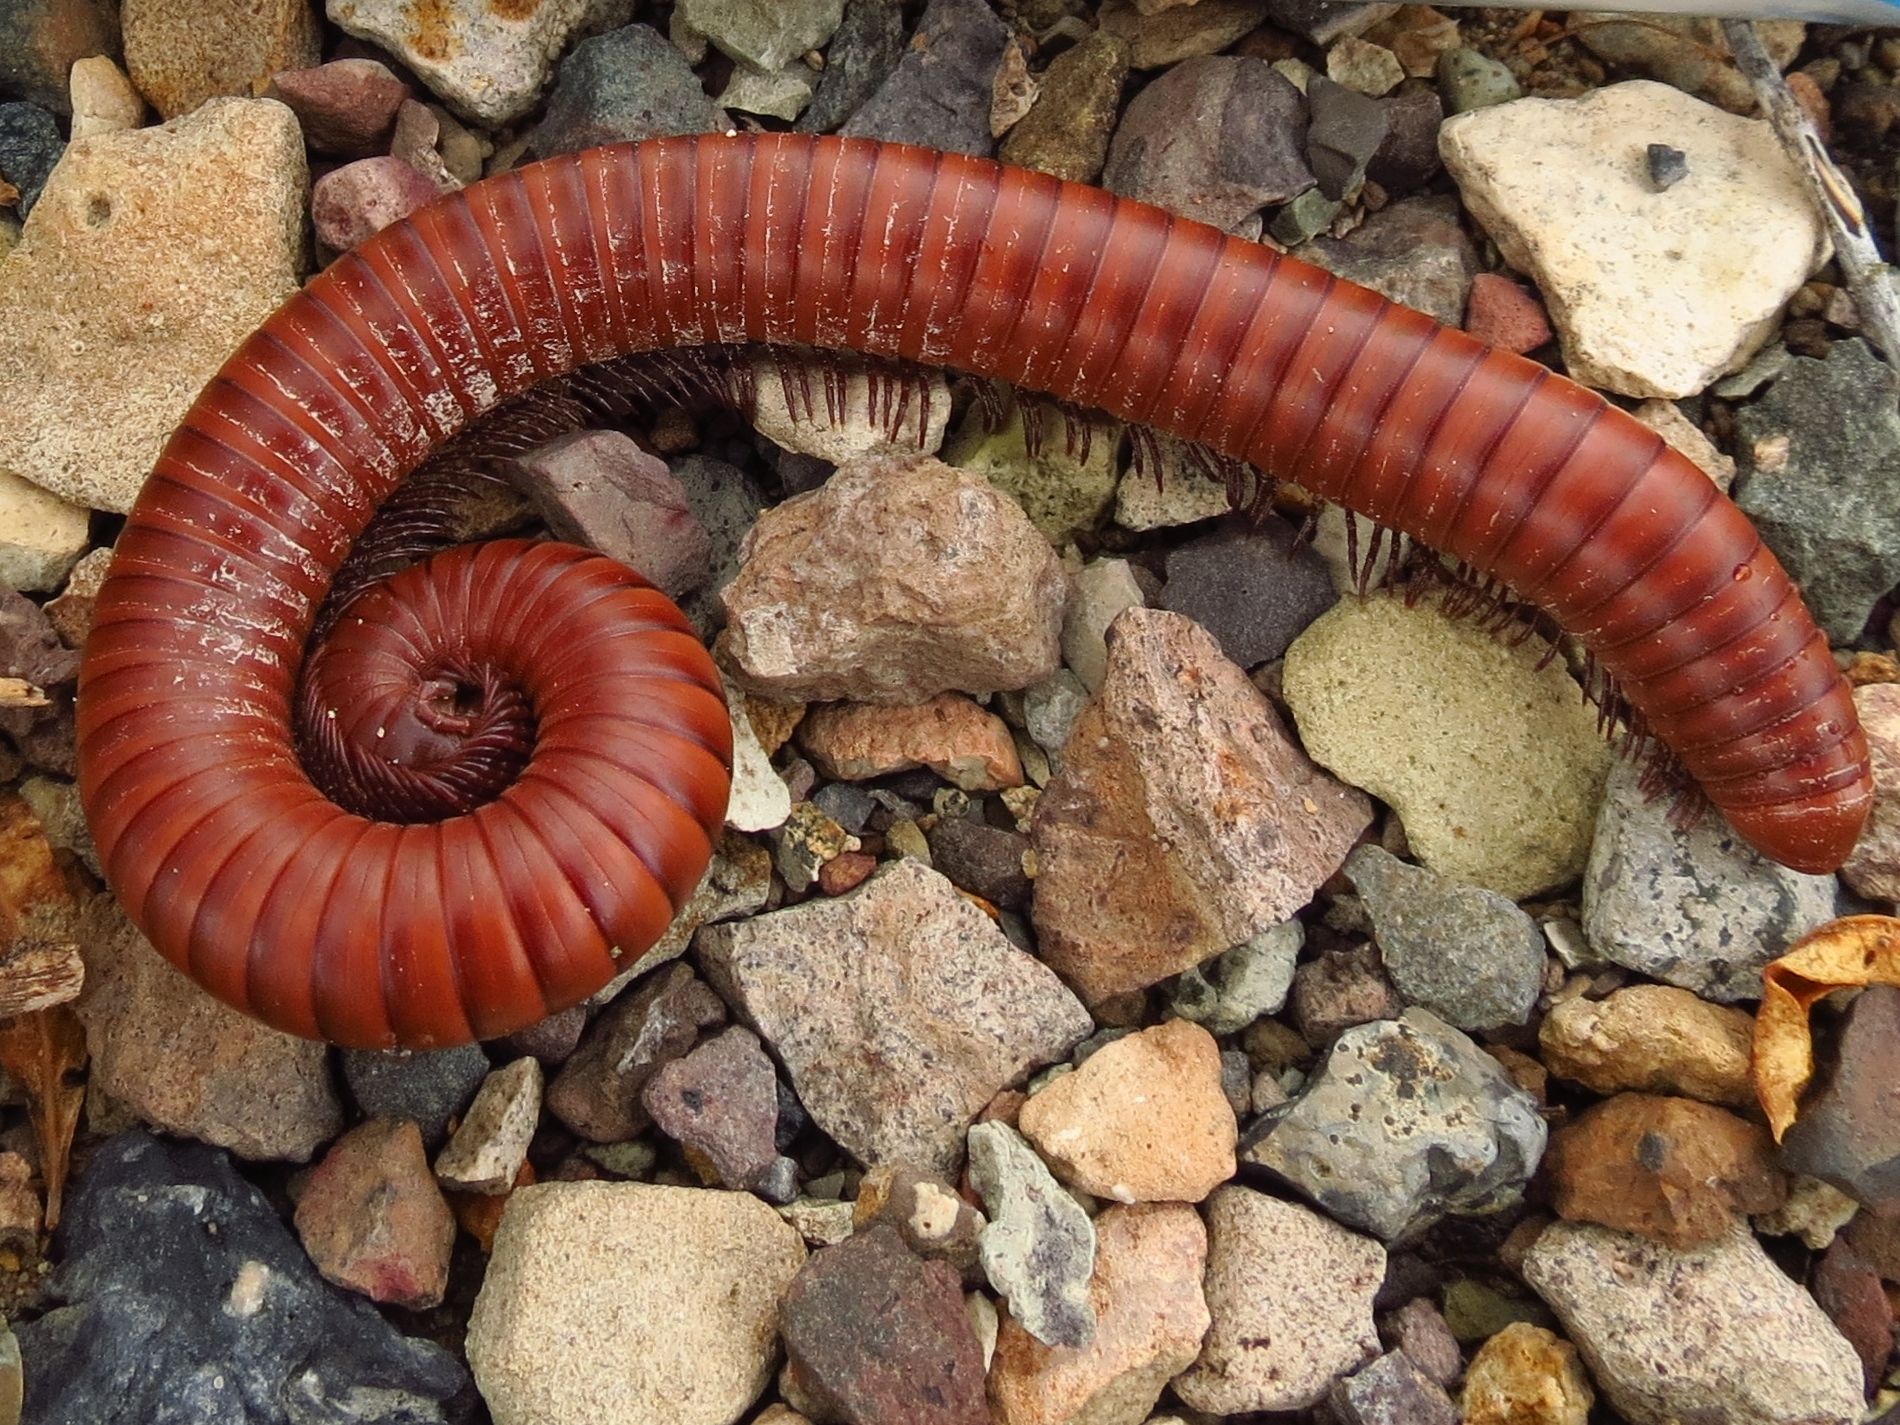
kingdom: Animalia
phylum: Arthropoda
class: Diplopoda
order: Spirostreptida
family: Spirostreptidae
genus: Orthoporus
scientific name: Orthoporus ornatus
